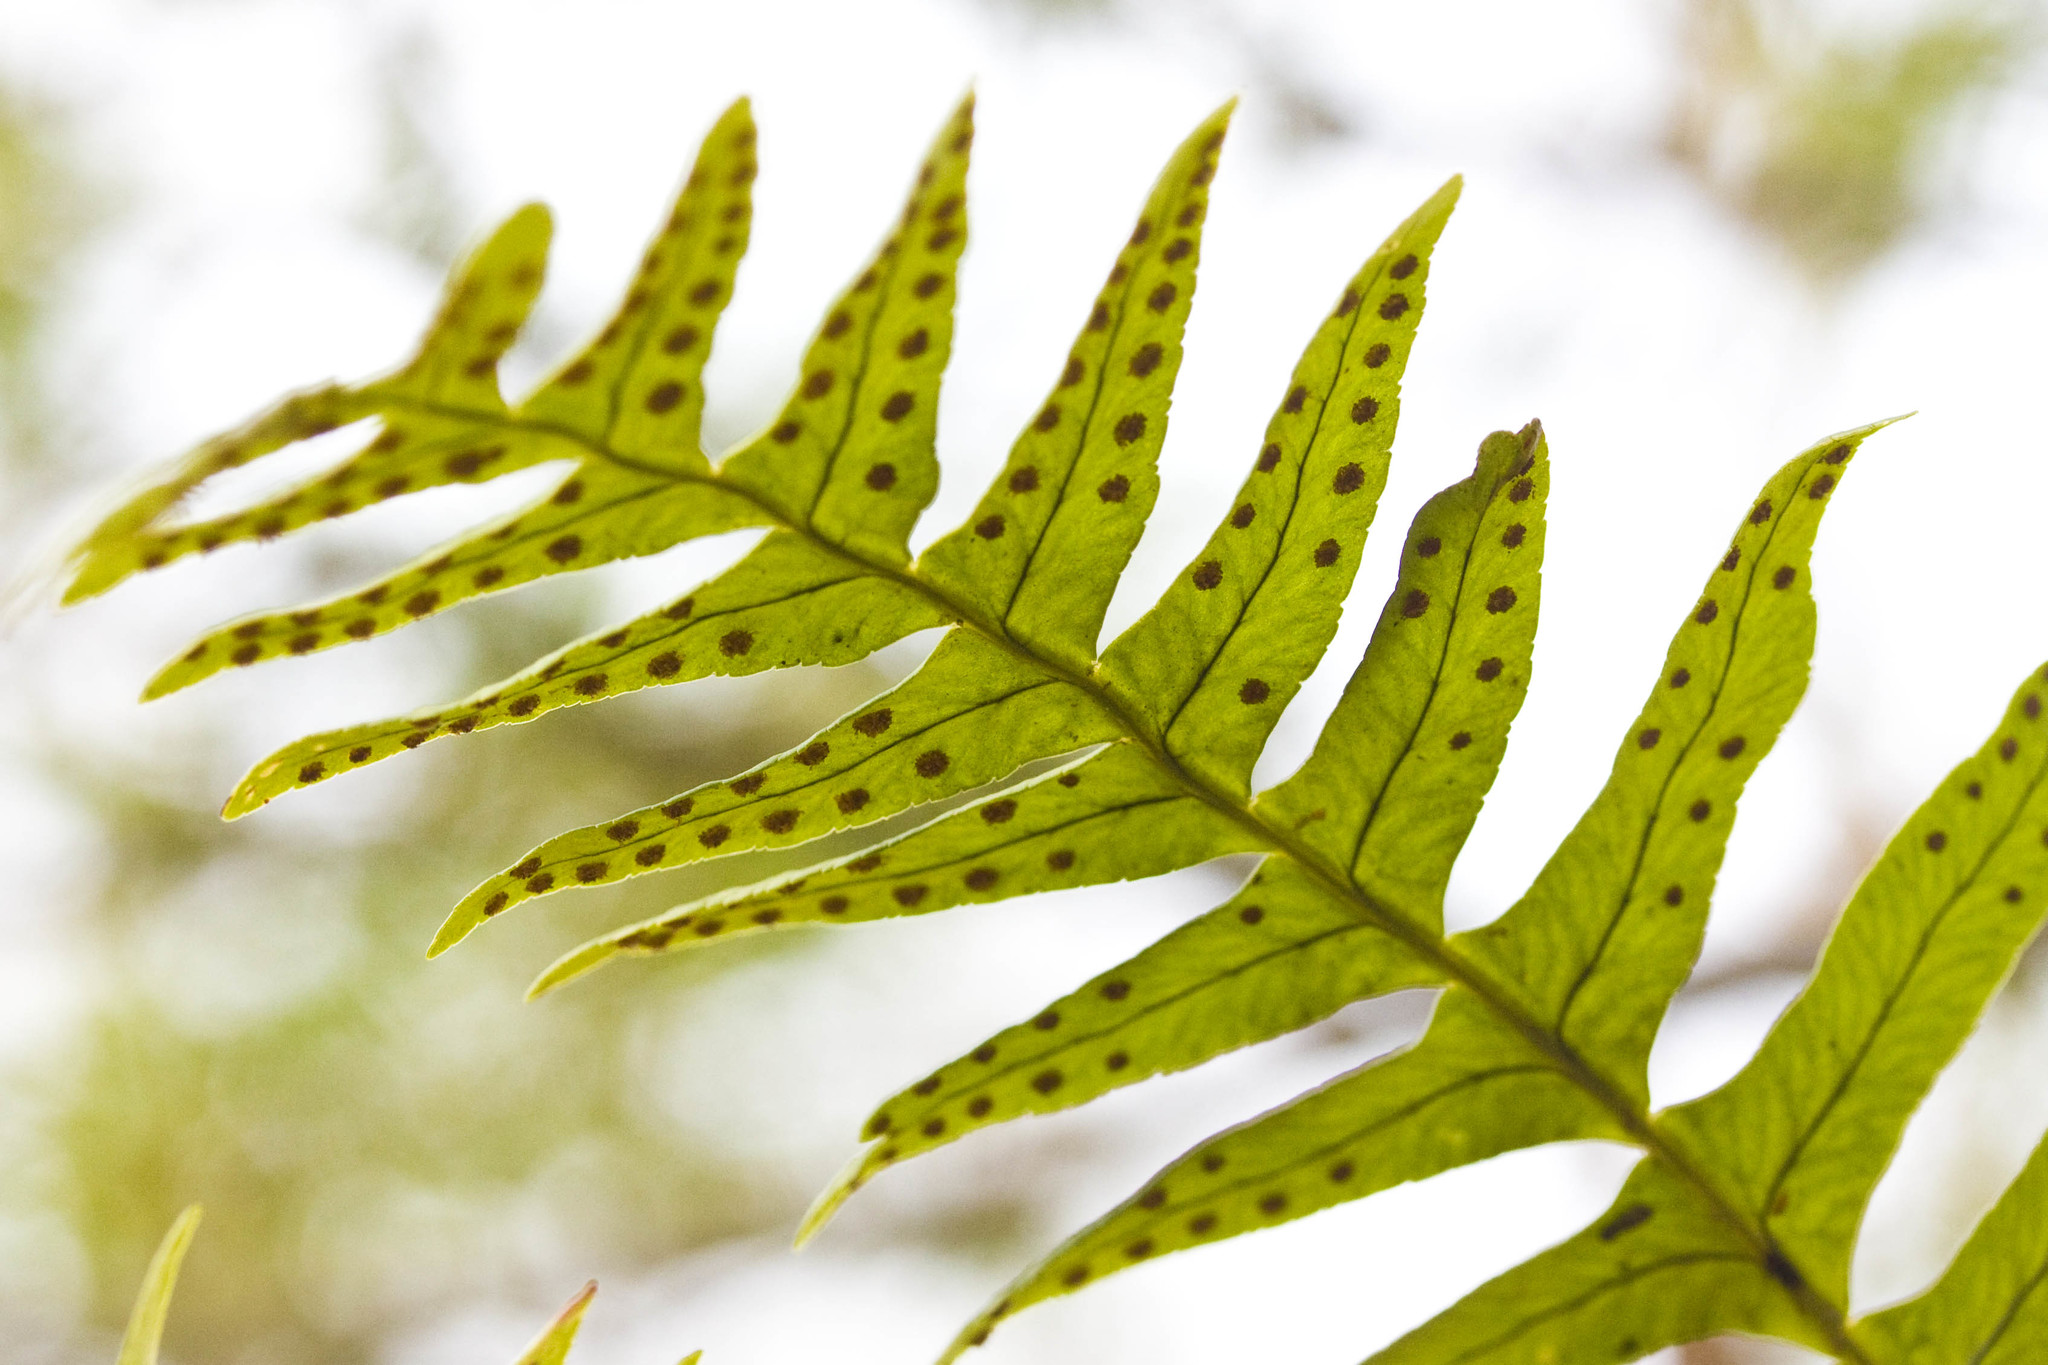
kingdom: Plantae
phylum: Tracheophyta
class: Polypodiopsida
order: Polypodiales
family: Polypodiaceae
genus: Polypodium
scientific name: Polypodium virginianum
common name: American wall fern
